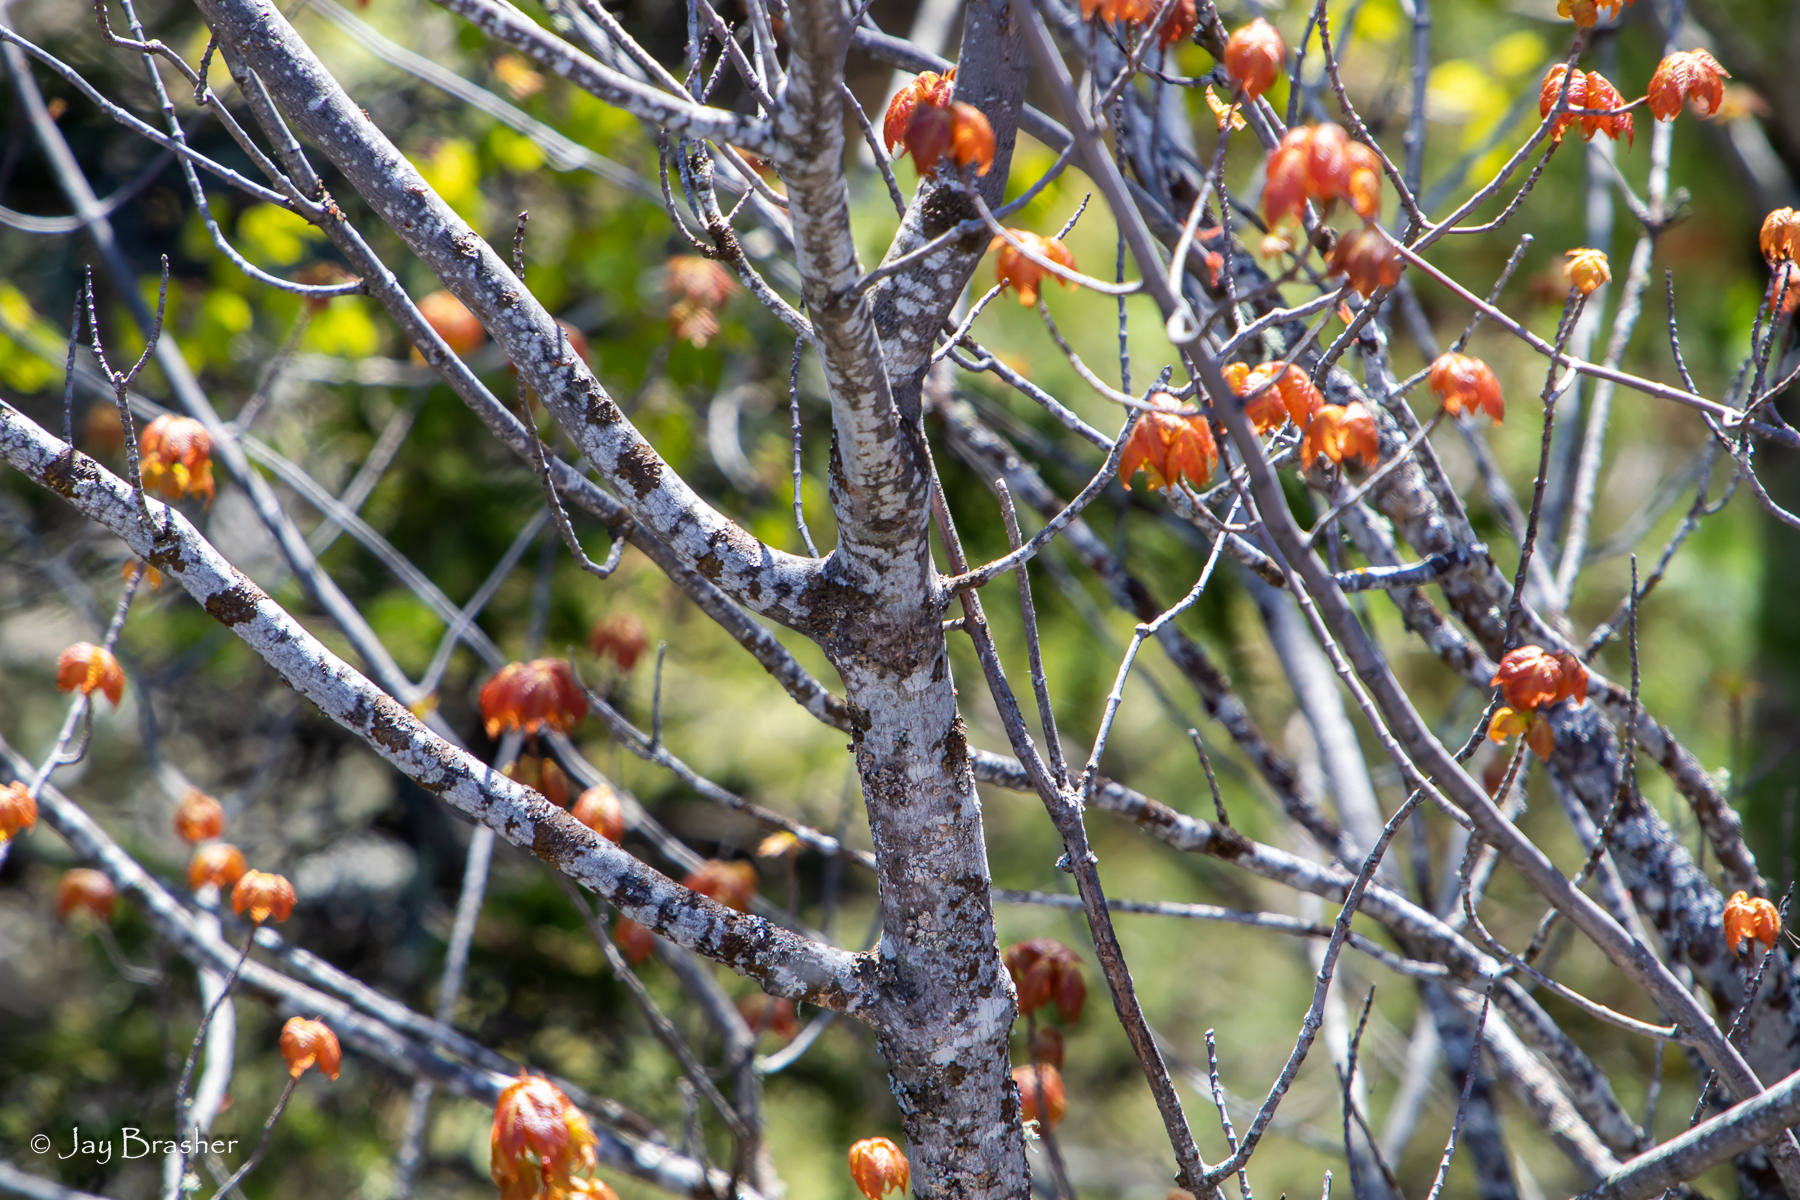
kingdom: Plantae
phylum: Tracheophyta
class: Magnoliopsida
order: Sapindales
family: Sapindaceae
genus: Acer
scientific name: Acer rubrum
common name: Red maple
